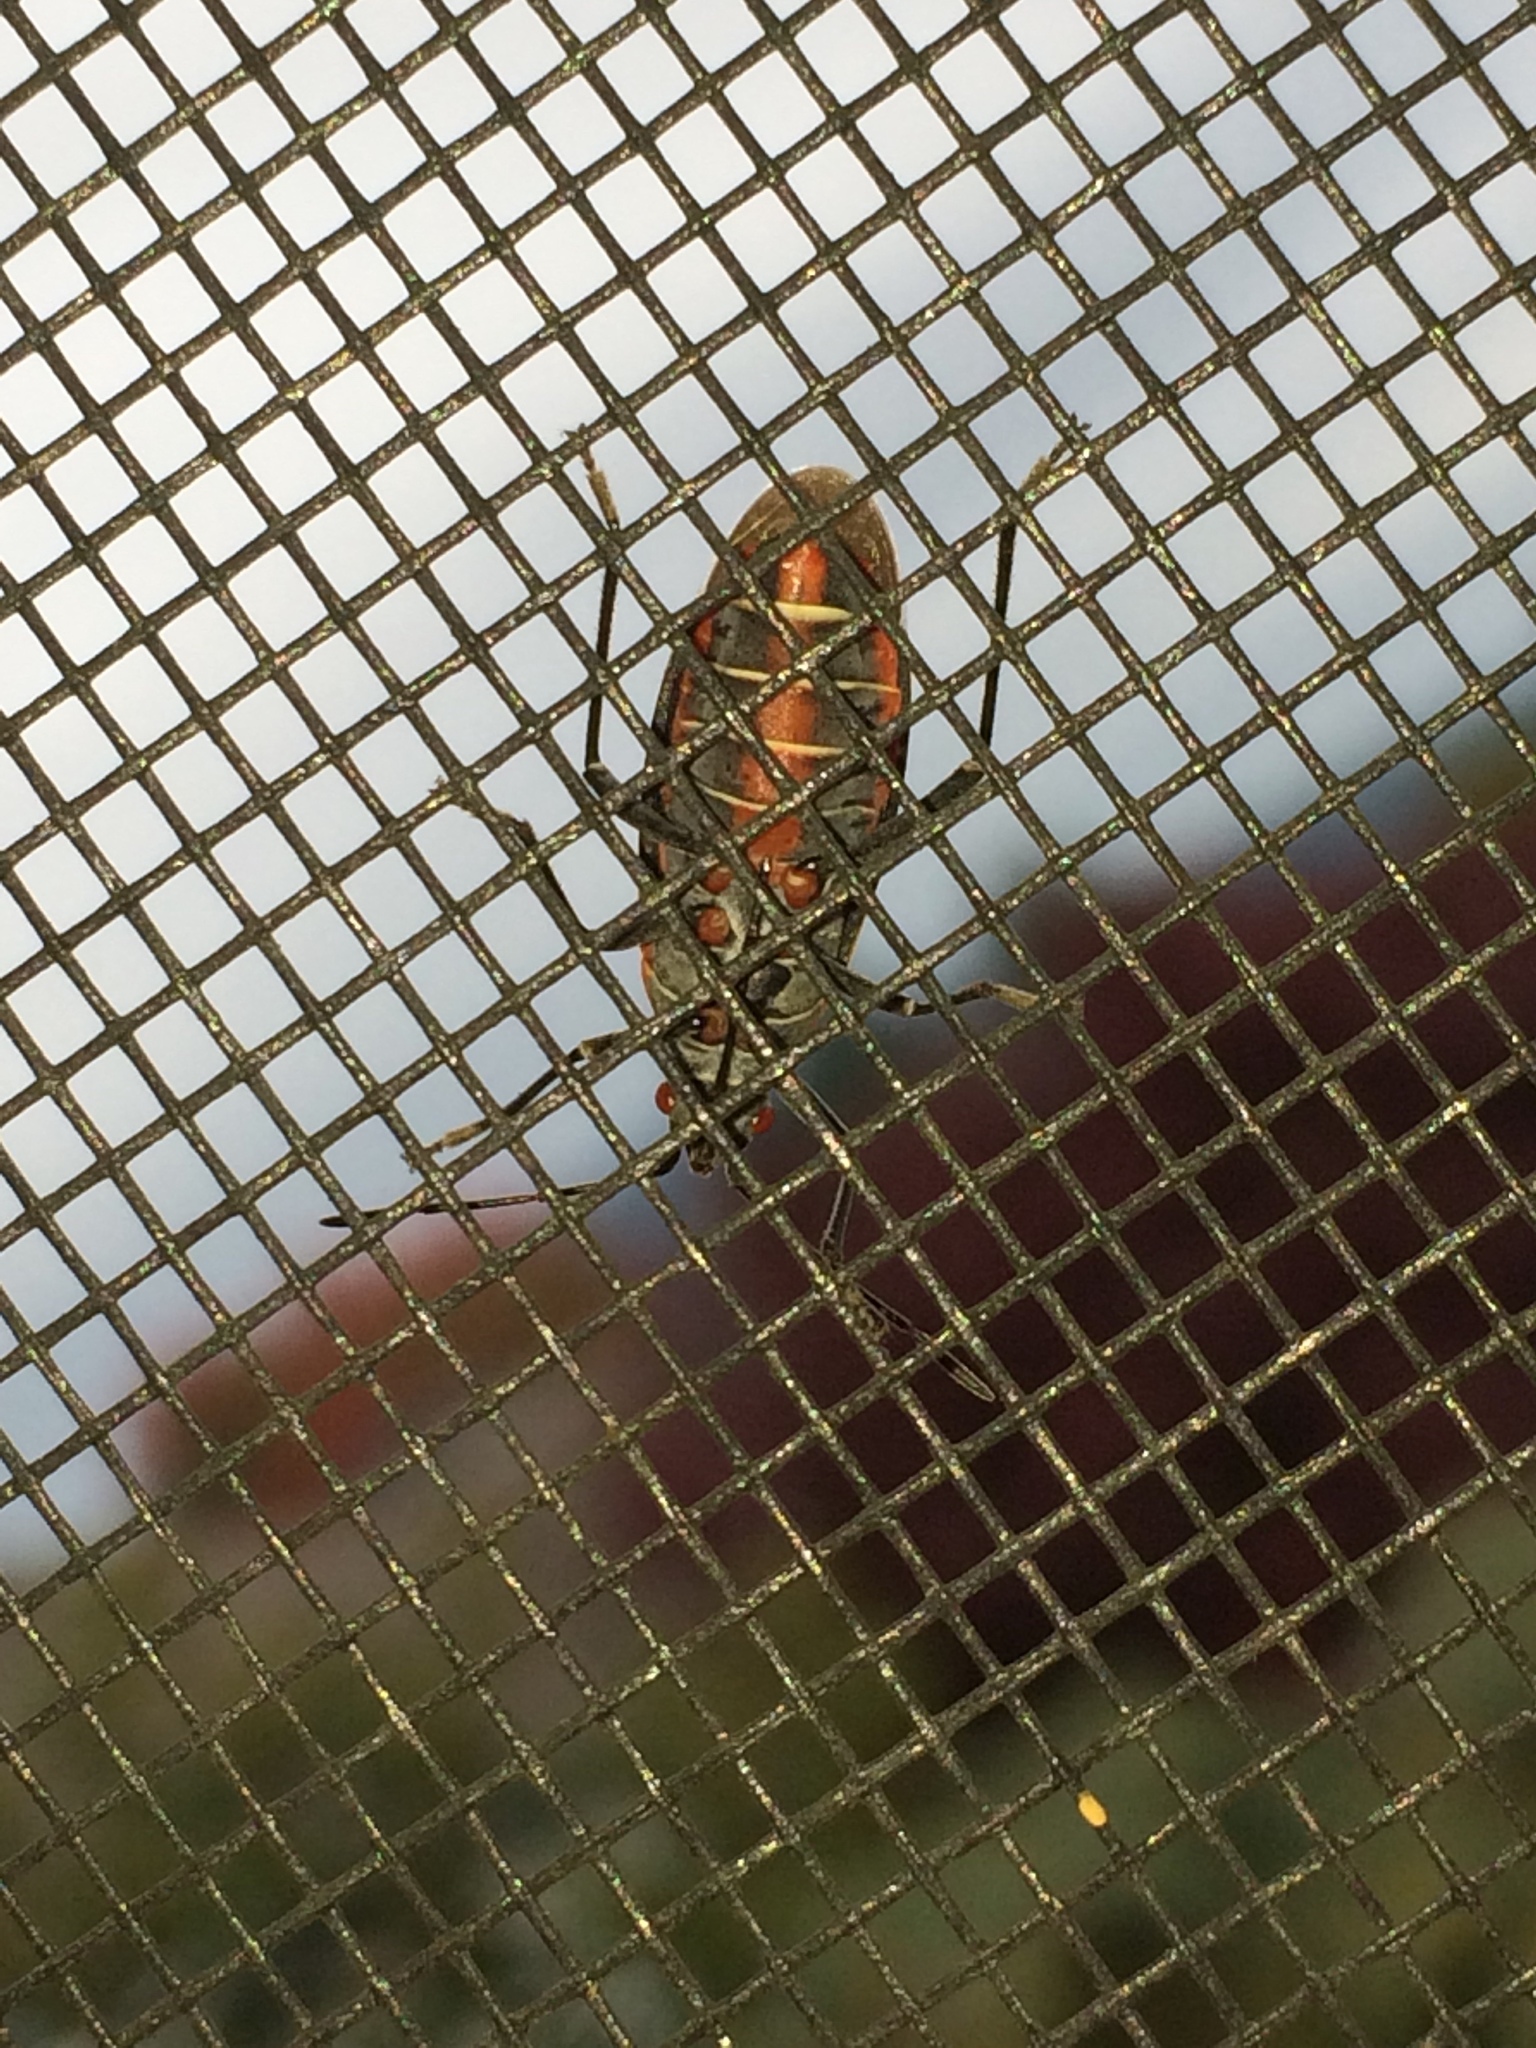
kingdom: Animalia
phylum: Arthropoda
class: Insecta
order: Hemiptera
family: Rhopalidae
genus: Boisea
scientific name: Boisea rubrolineata
